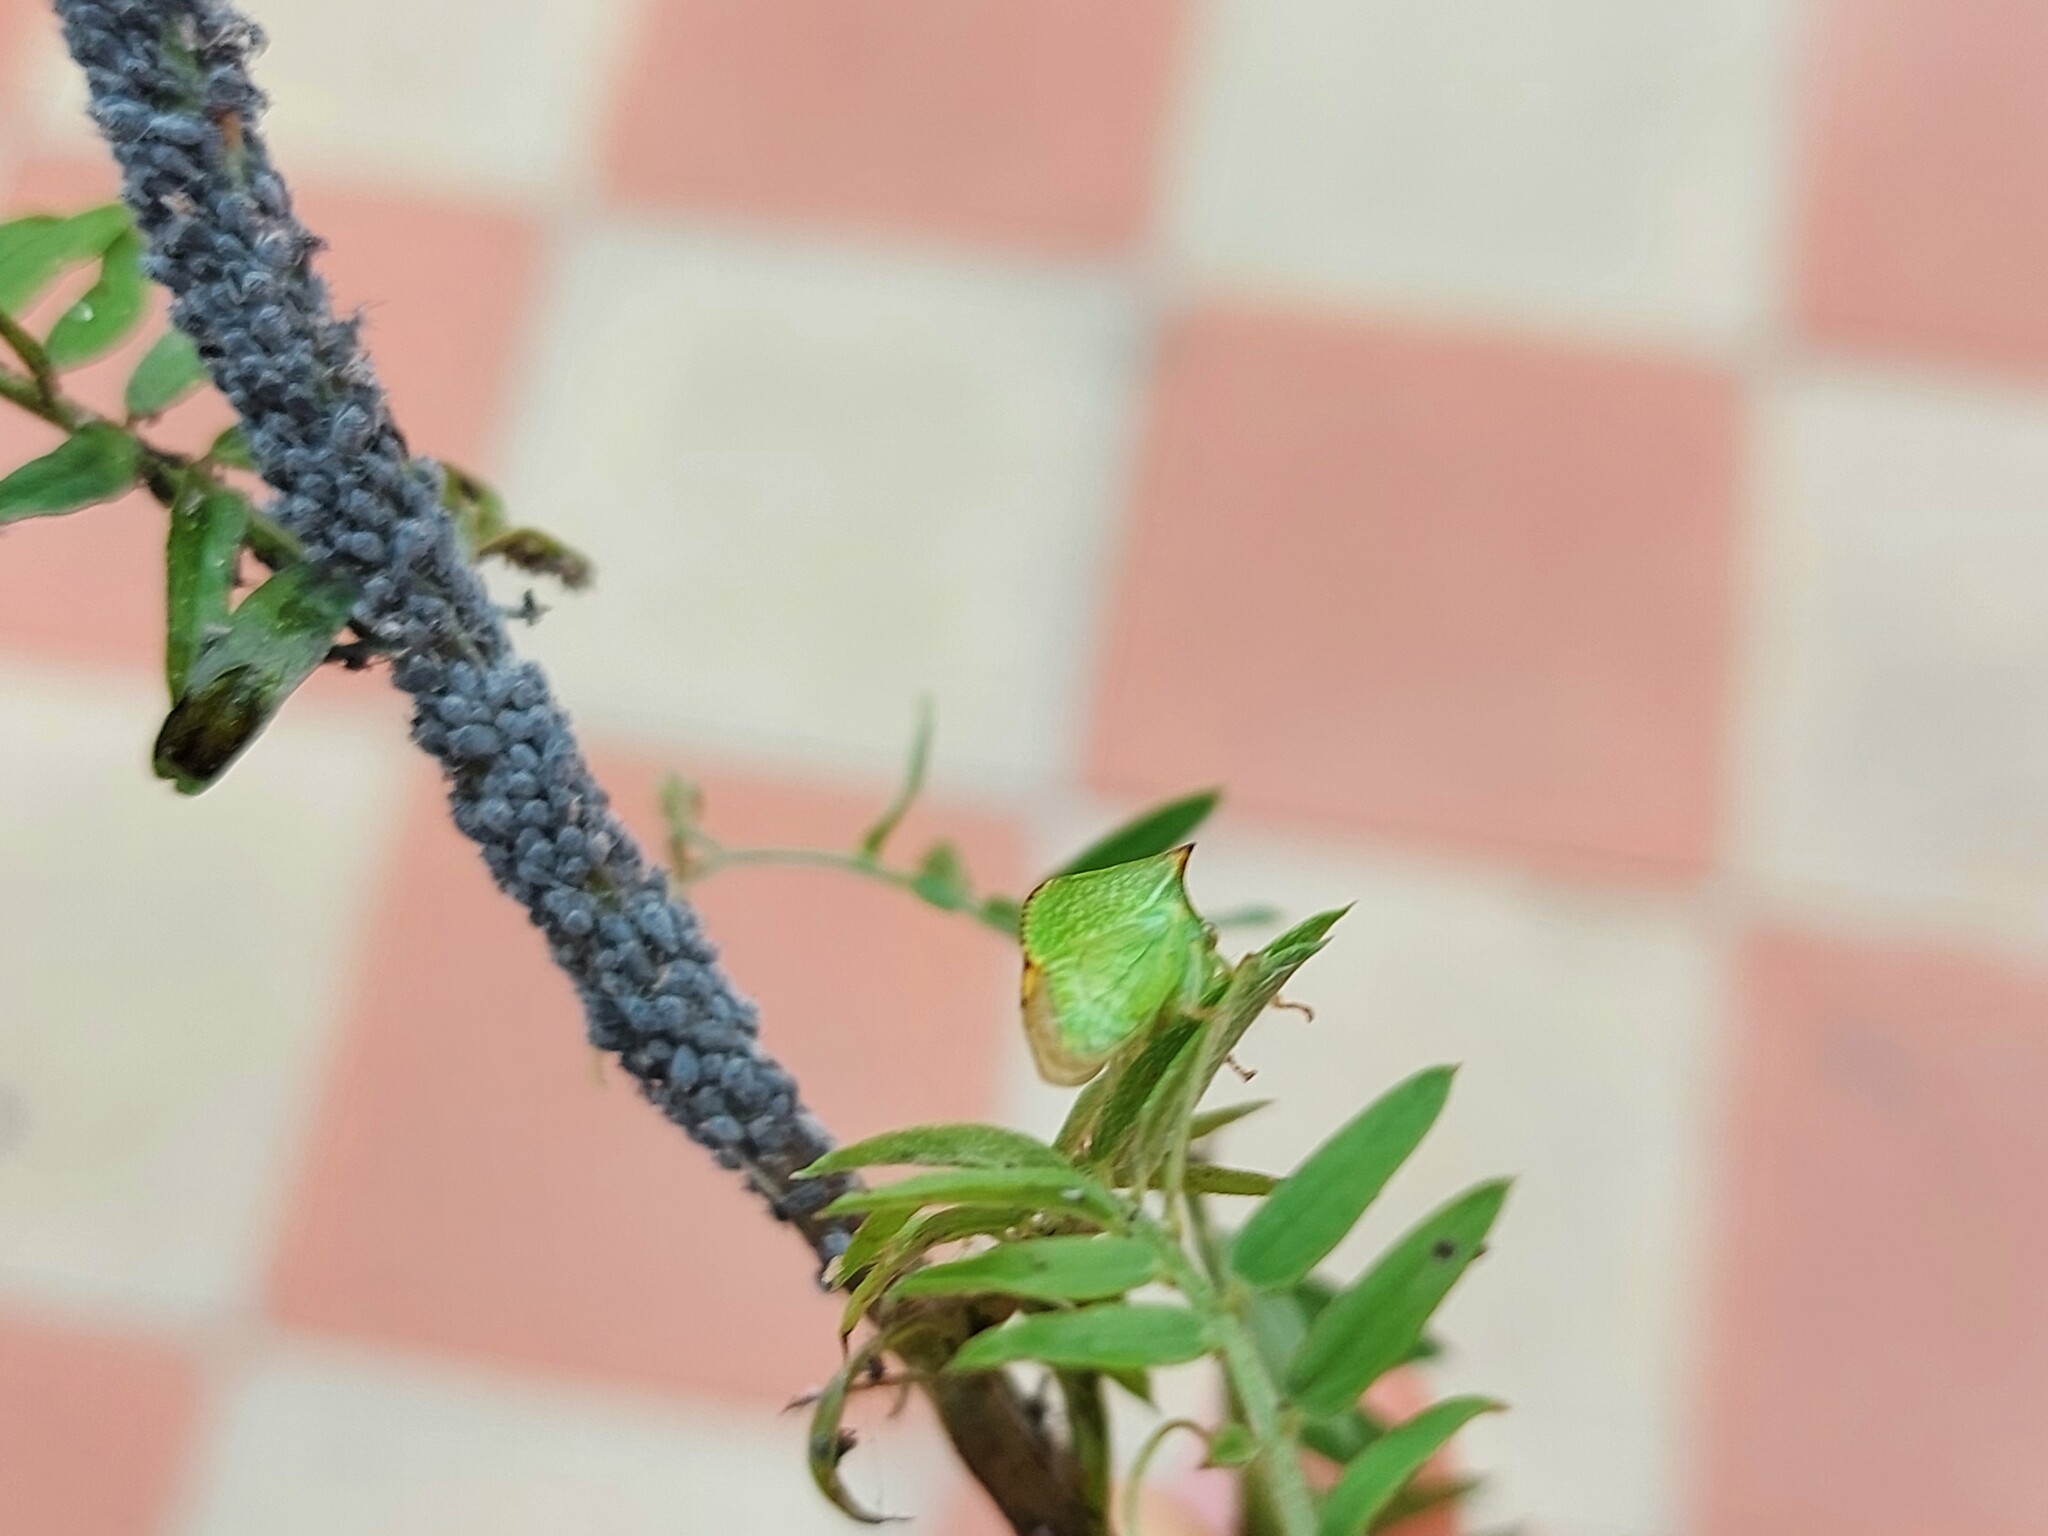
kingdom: Animalia
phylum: Arthropoda
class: Insecta
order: Hemiptera
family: Membracidae
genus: Stictocephala
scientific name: Stictocephala bisonia
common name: American buffalo treehopper
